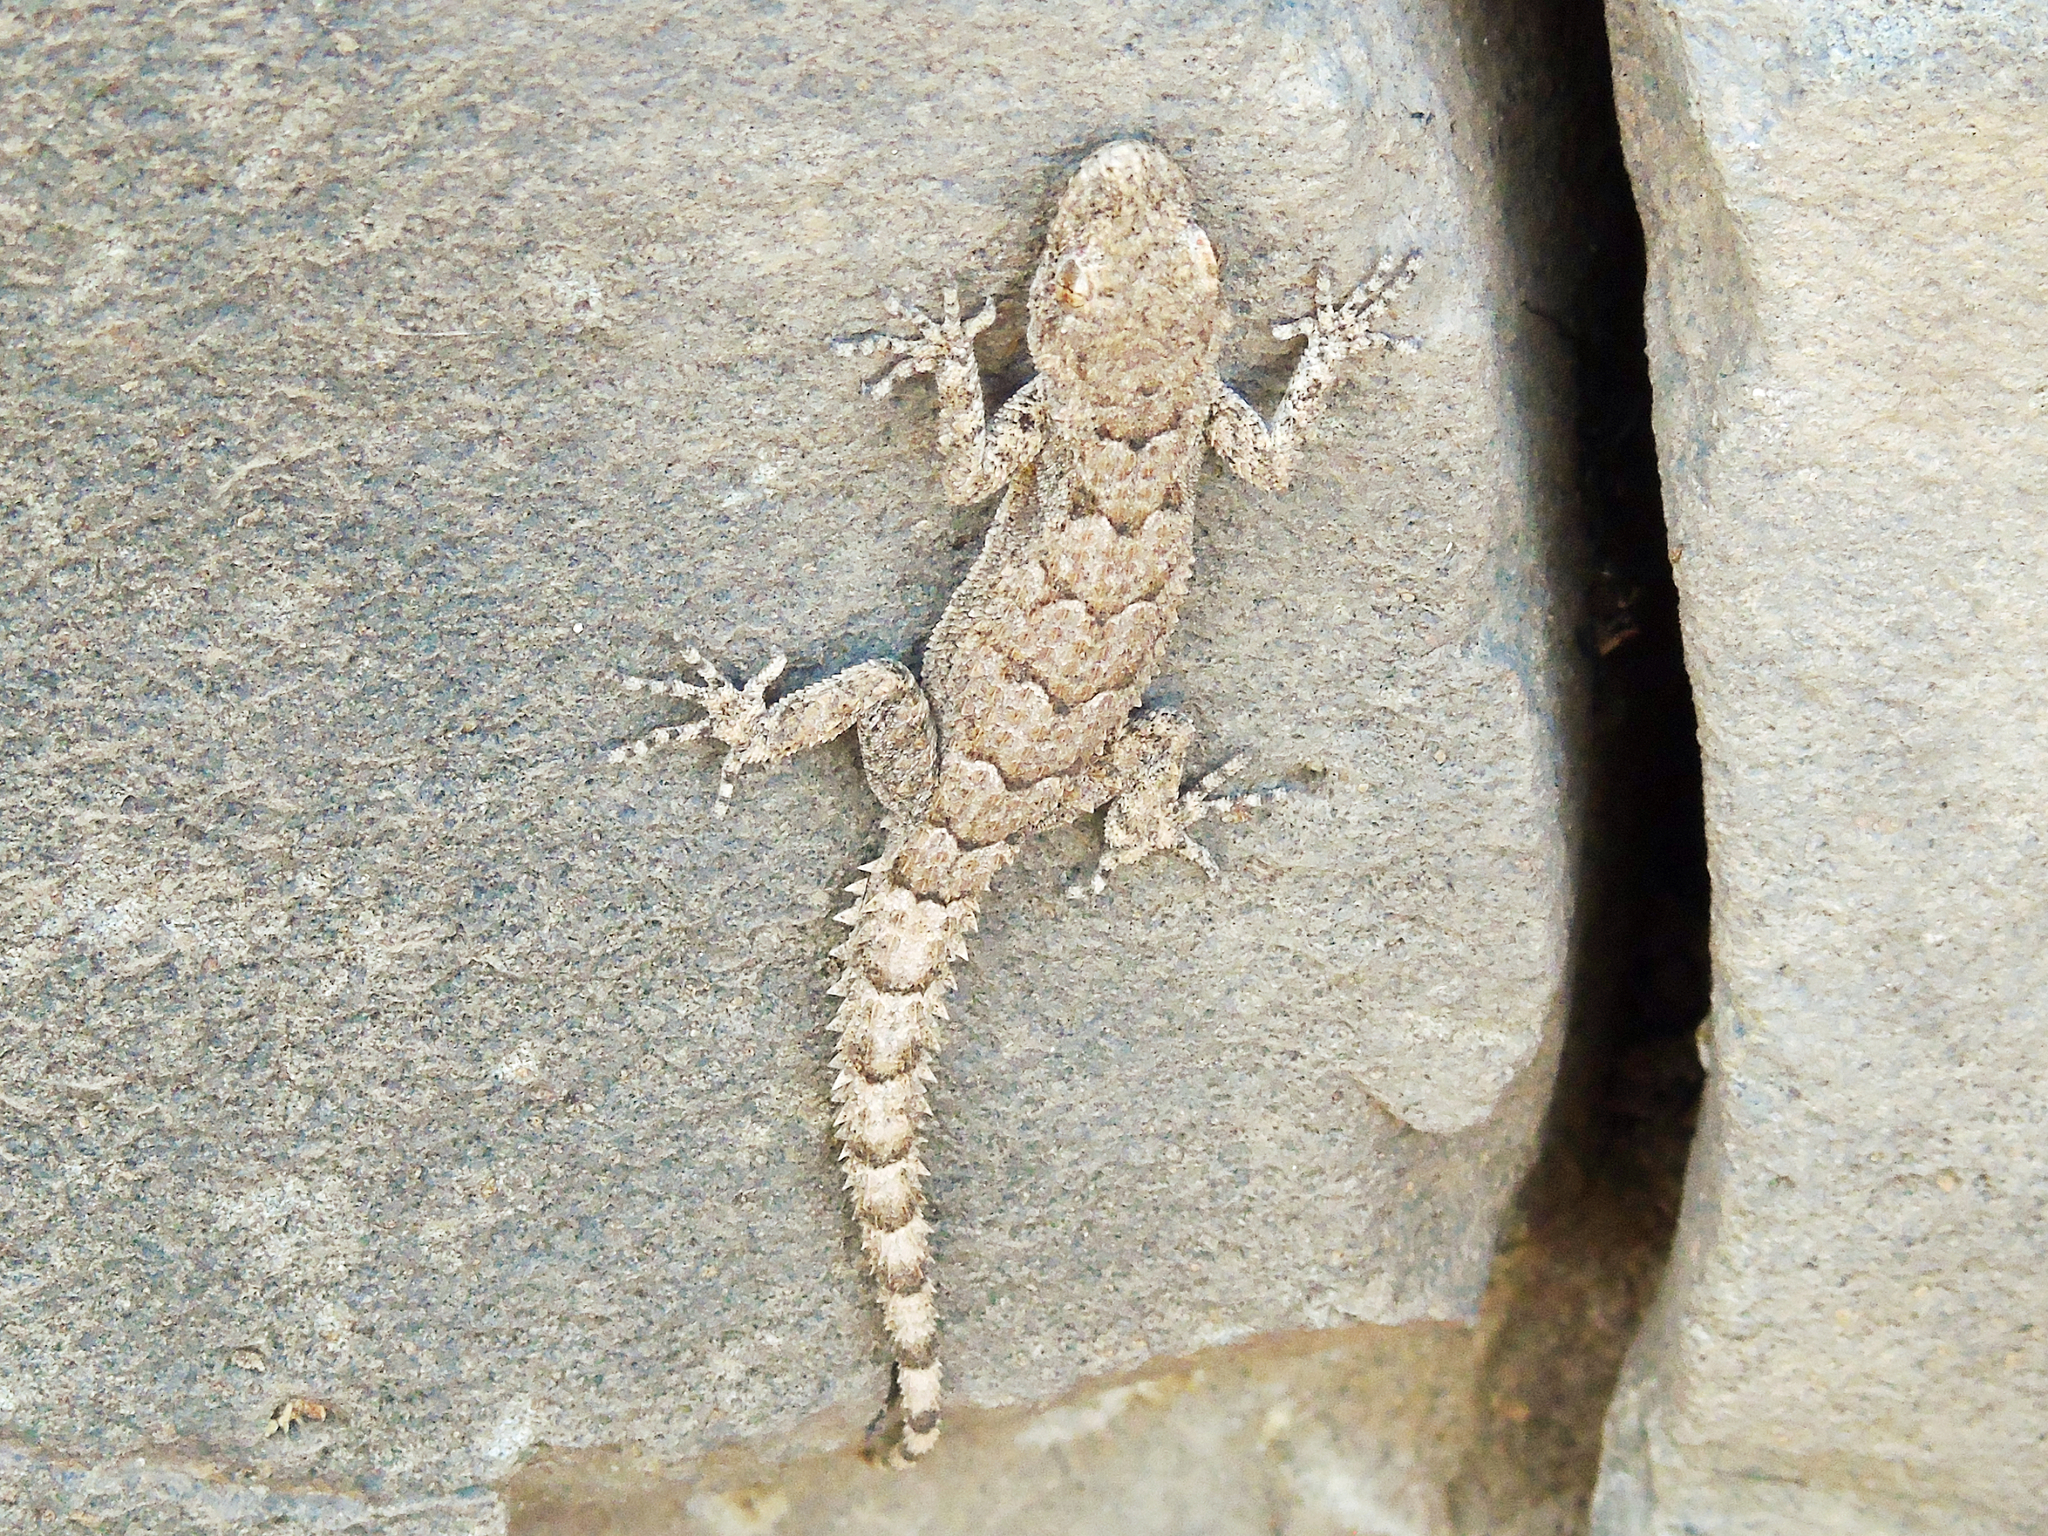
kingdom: Animalia
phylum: Chordata
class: Squamata
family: Gekkonidae
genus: Mediodactylus
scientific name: Mediodactylus heterocercus
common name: Asia minor thin-toed gecko
